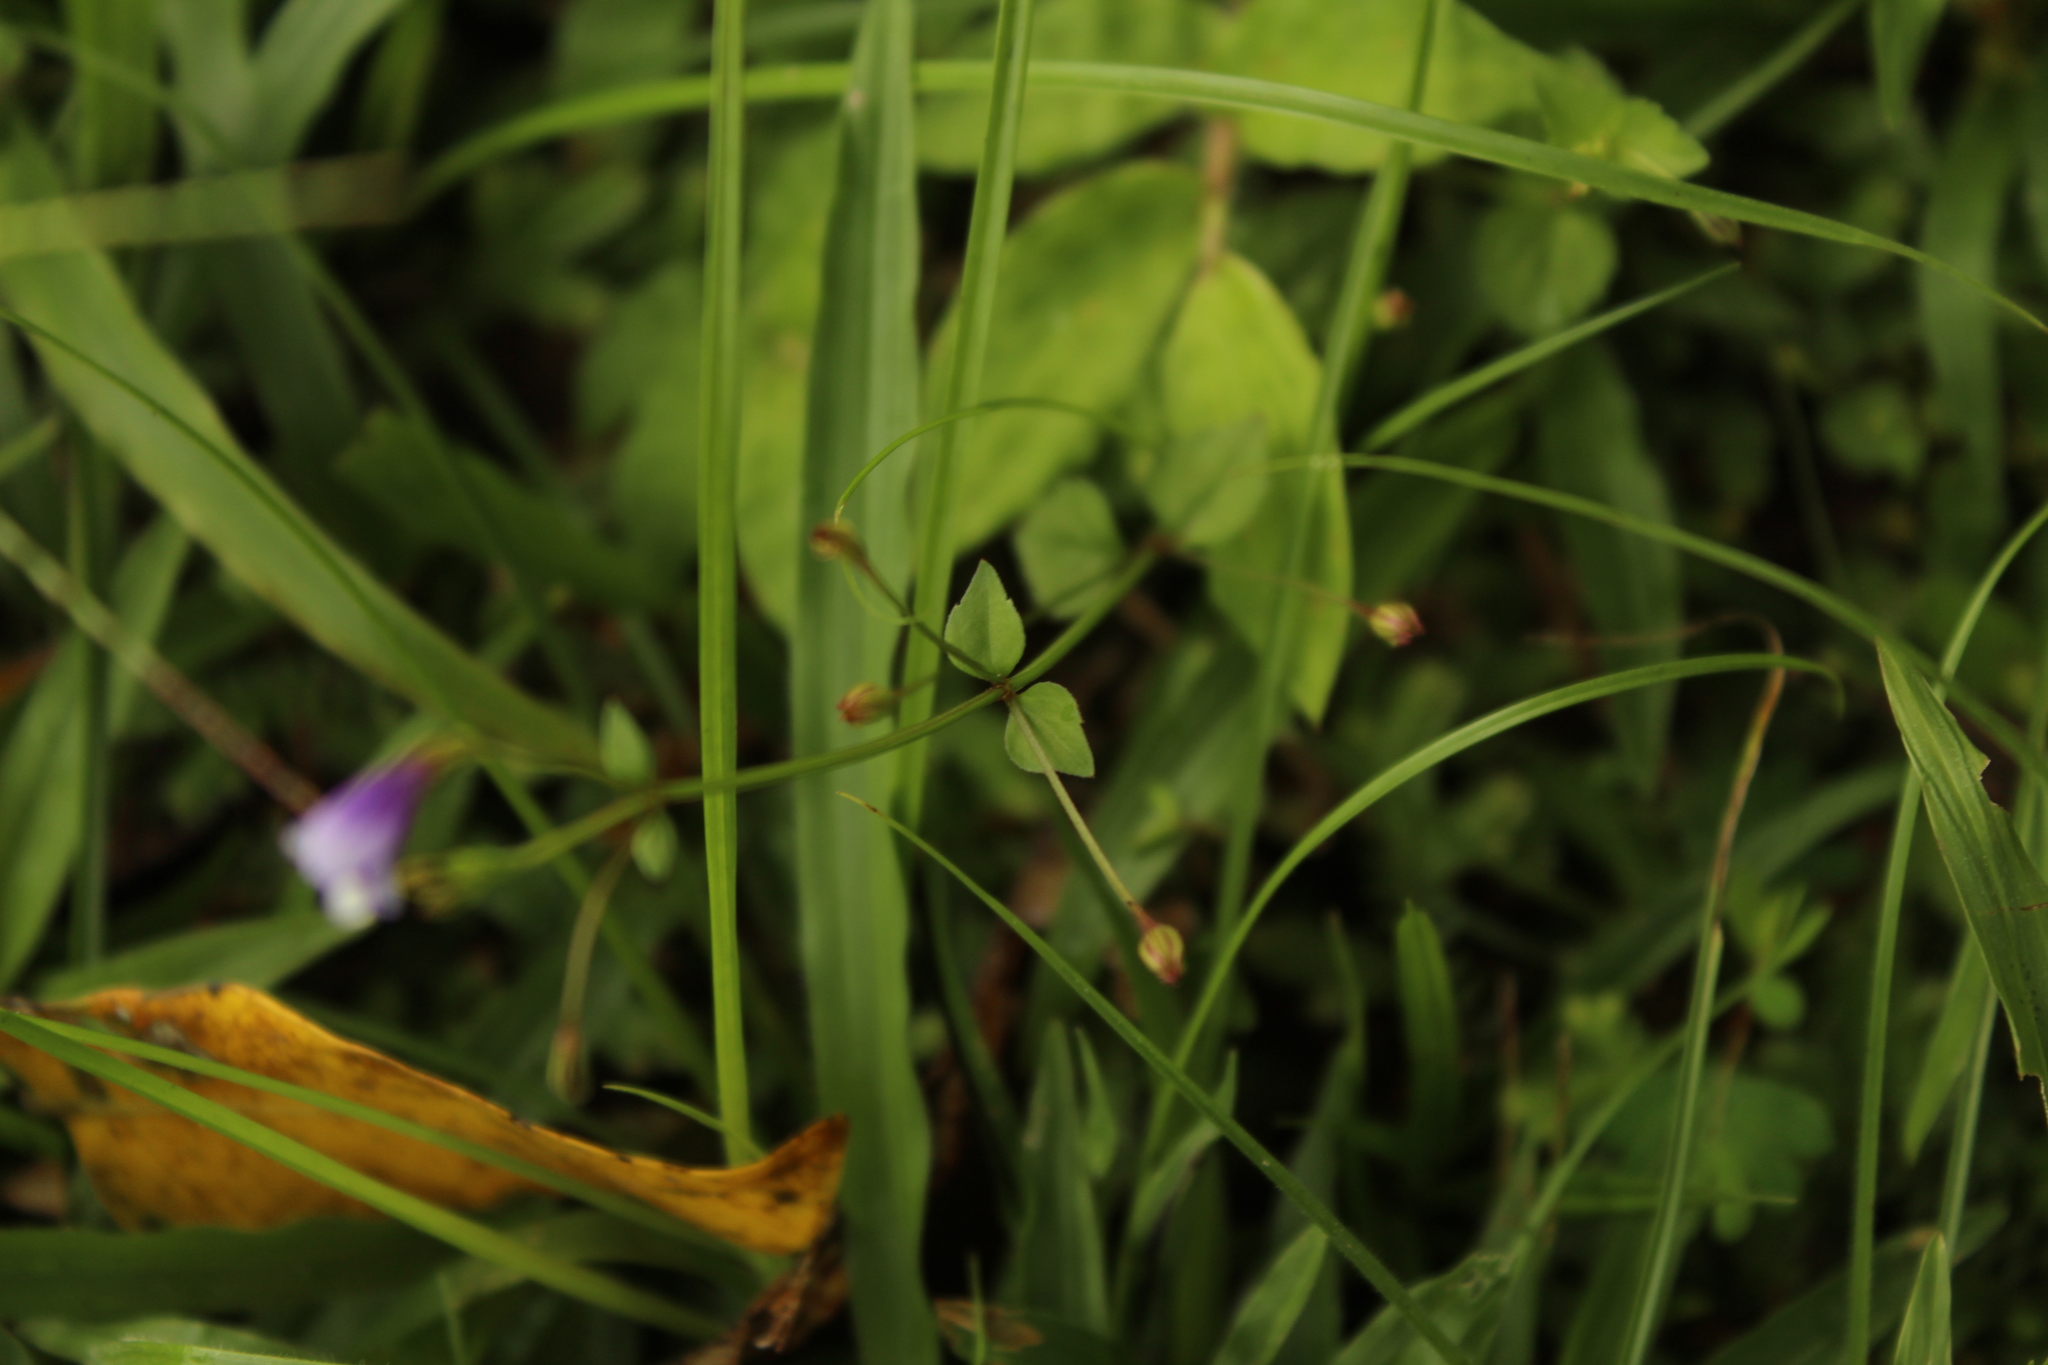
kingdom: Plantae
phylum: Tracheophyta
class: Magnoliopsida
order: Lamiales
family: Linderniaceae
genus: Torenia
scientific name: Torenia crustacea
